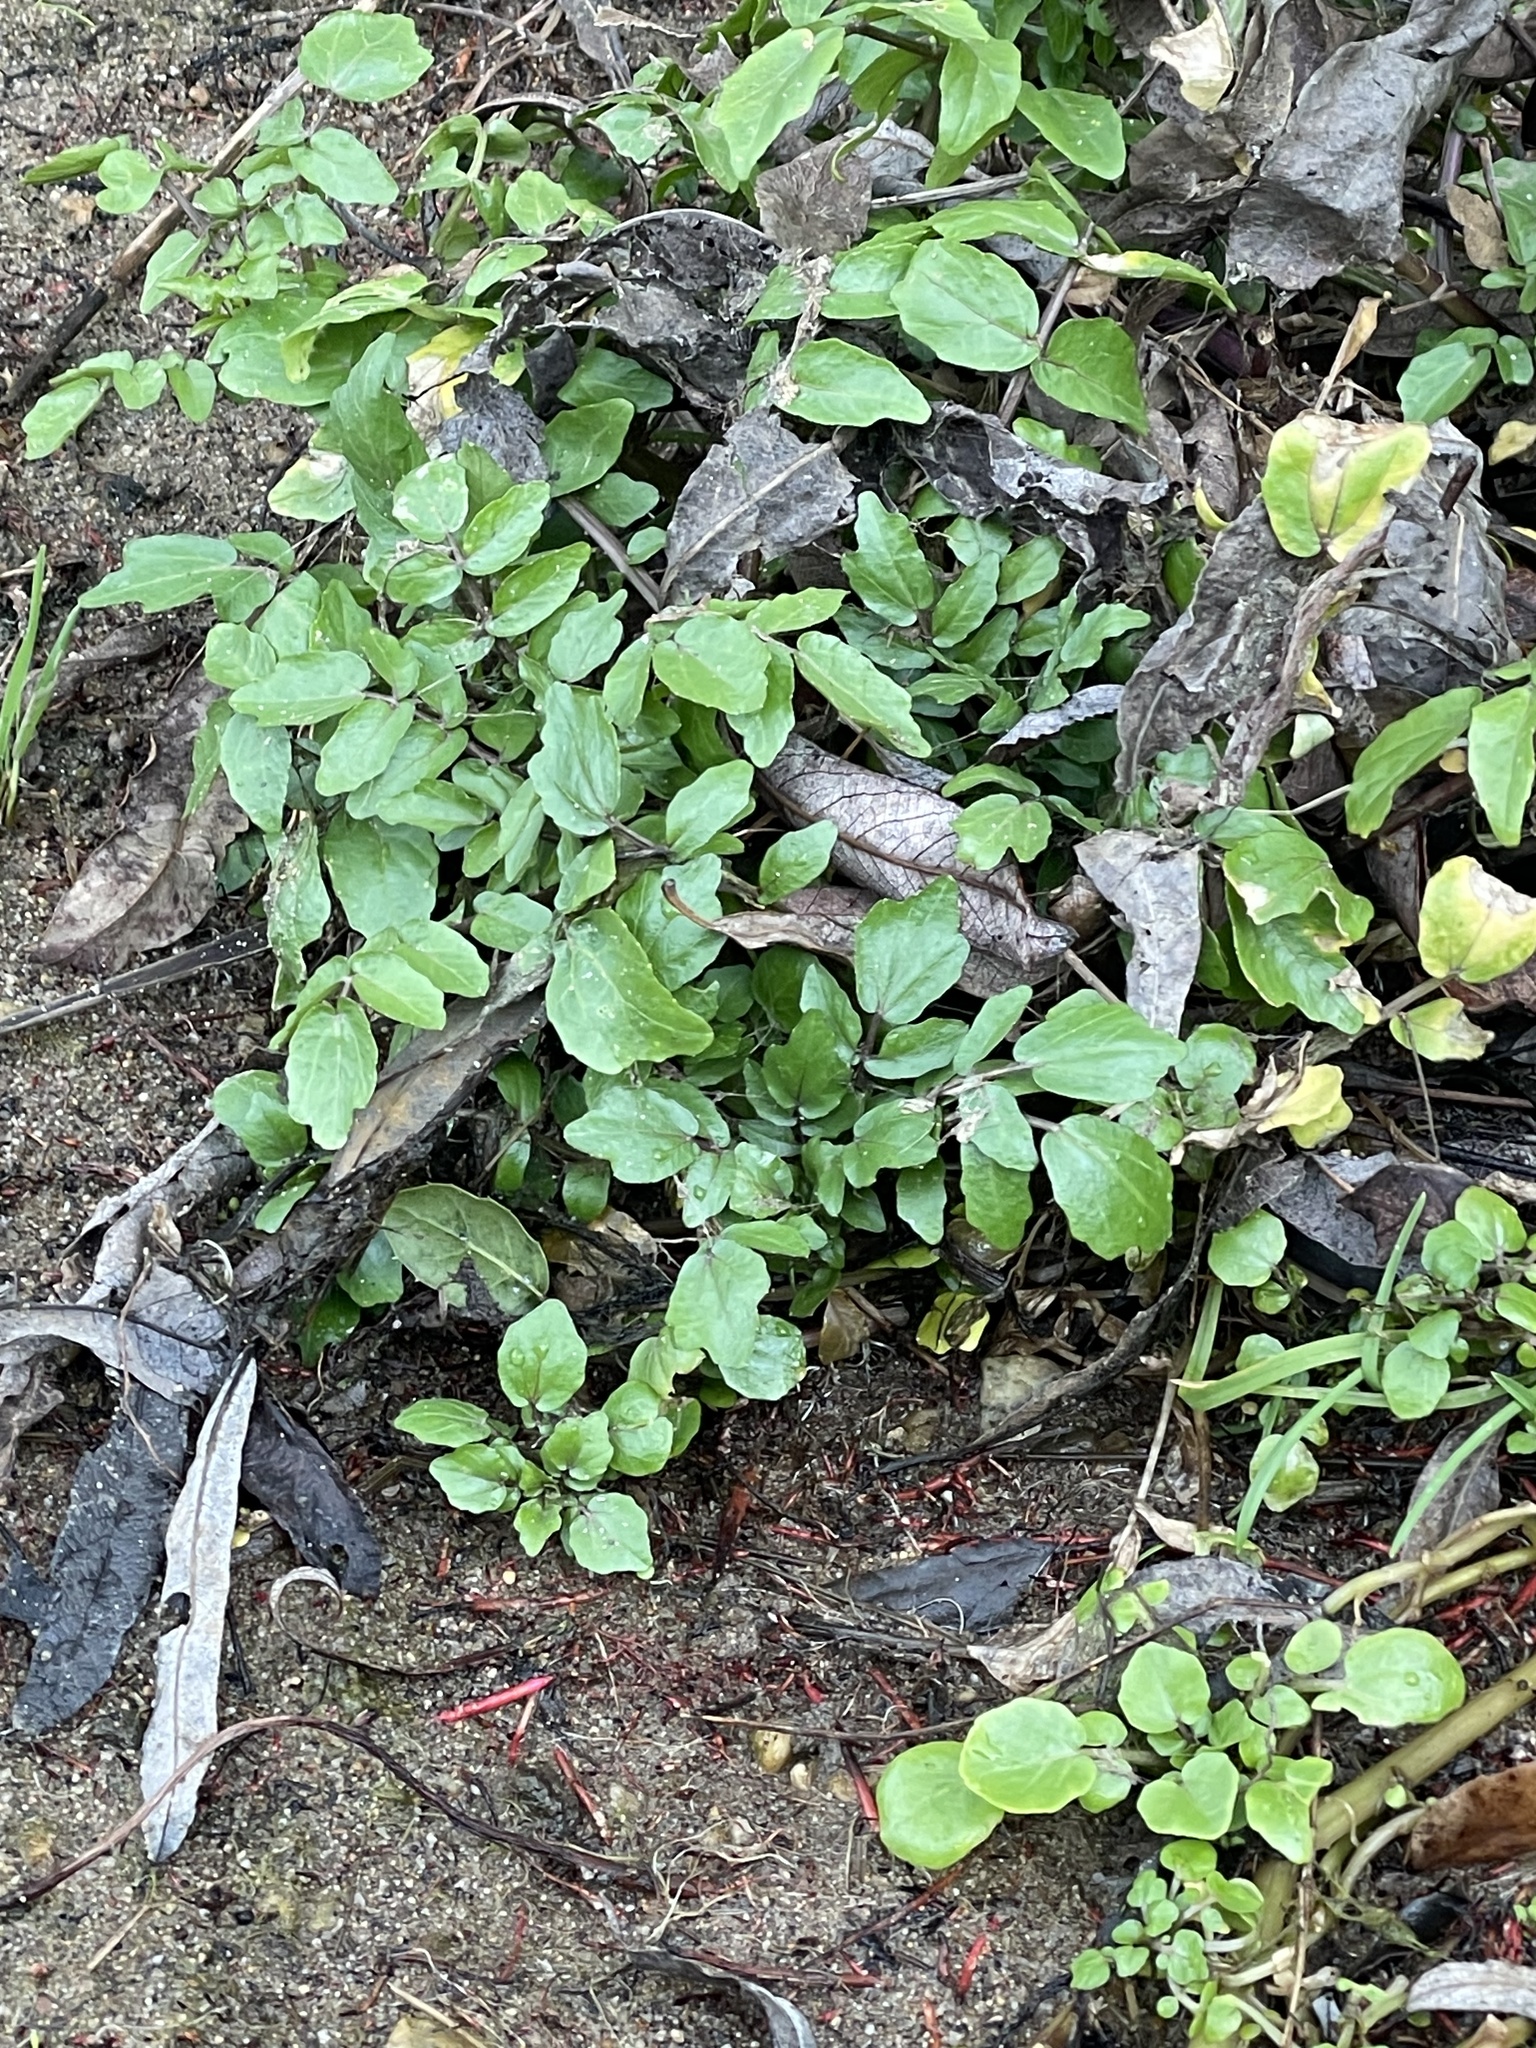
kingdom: Plantae
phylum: Tracheophyta
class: Magnoliopsida
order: Brassicales
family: Brassicaceae
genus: Nasturtium
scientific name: Nasturtium officinale
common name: Watercress
